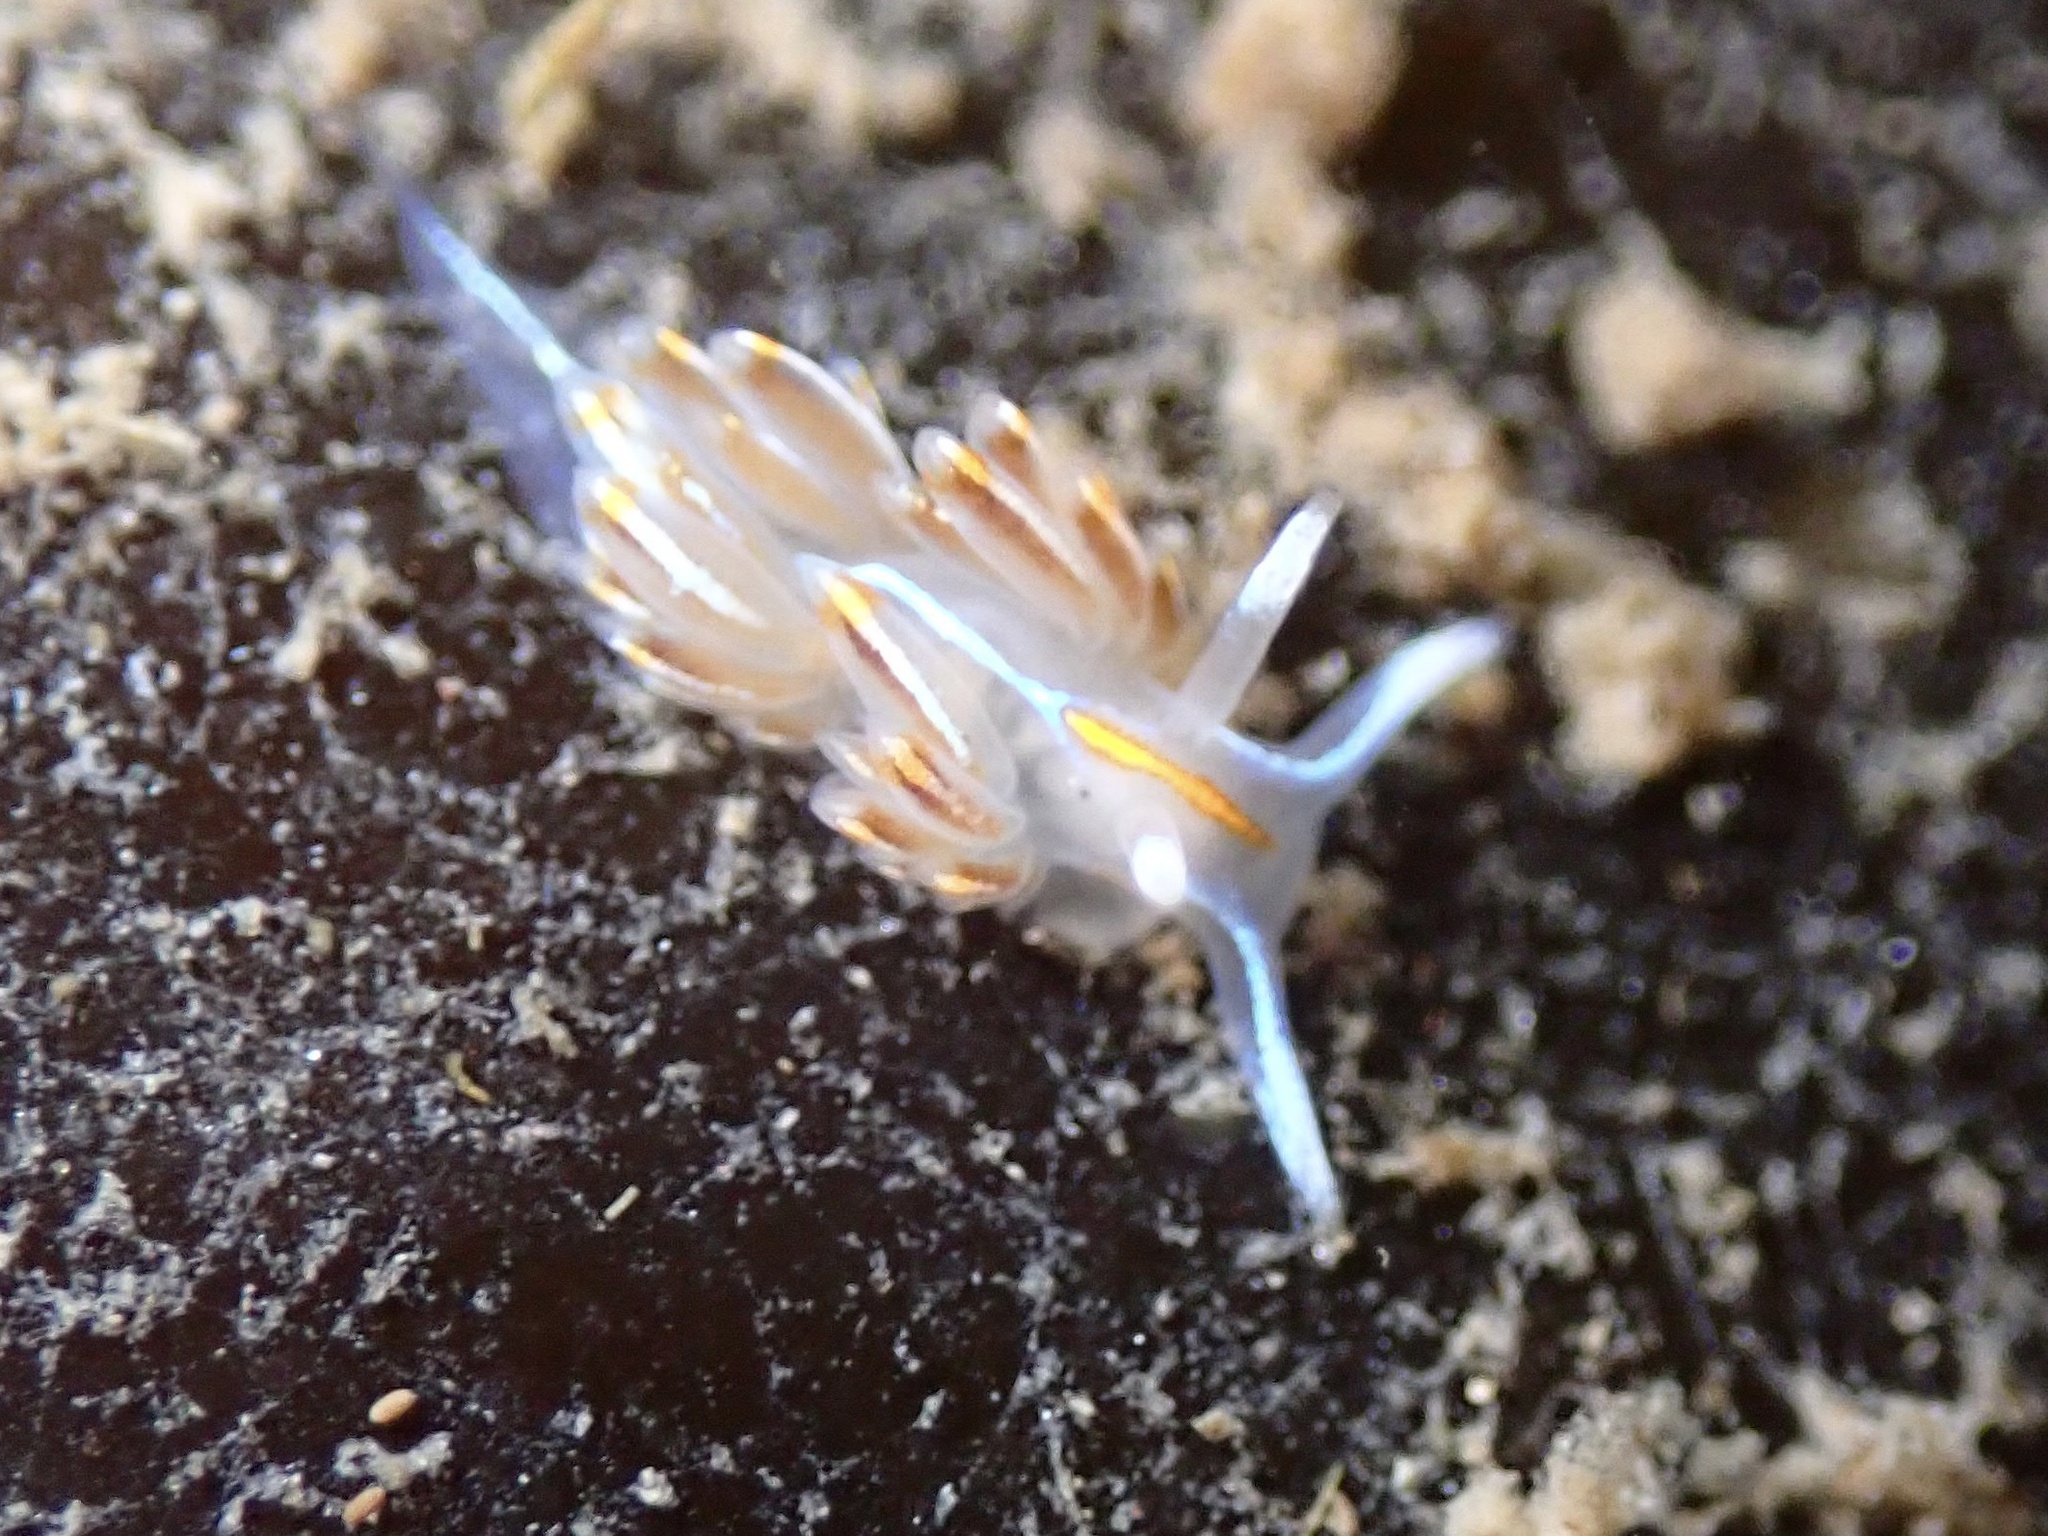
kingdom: Animalia
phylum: Mollusca
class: Gastropoda
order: Nudibranchia
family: Myrrhinidae
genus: Hermissenda
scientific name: Hermissenda crassicornis
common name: Hermissenda
